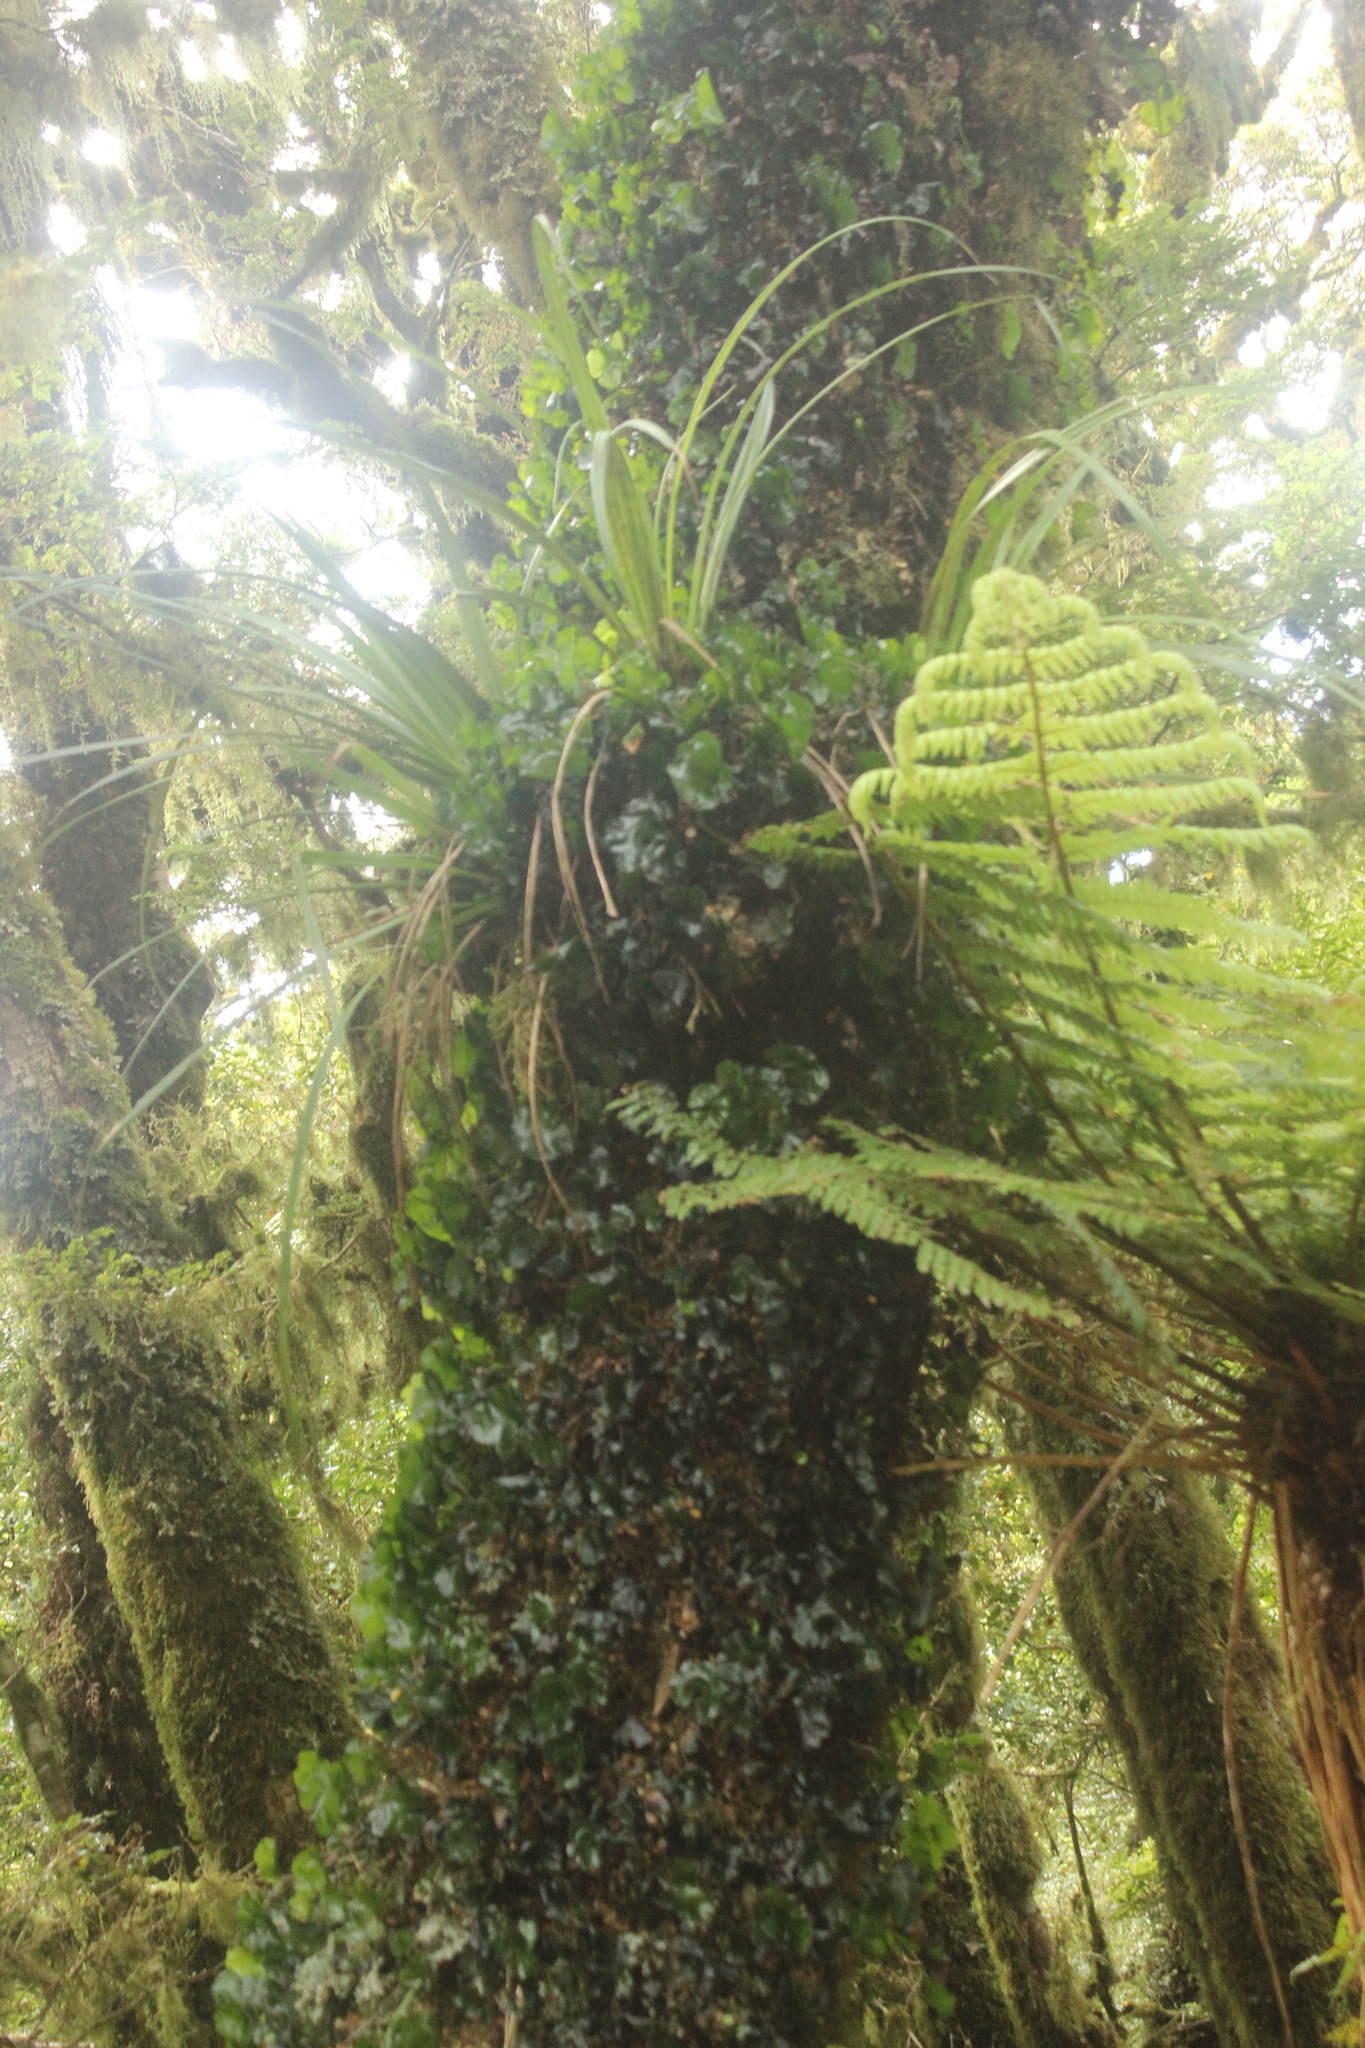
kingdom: Plantae
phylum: Tracheophyta
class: Polypodiopsida
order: Hymenophyllales
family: Hymenophyllaceae
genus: Hymenophyllum
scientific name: Hymenophyllum nephrophyllum
